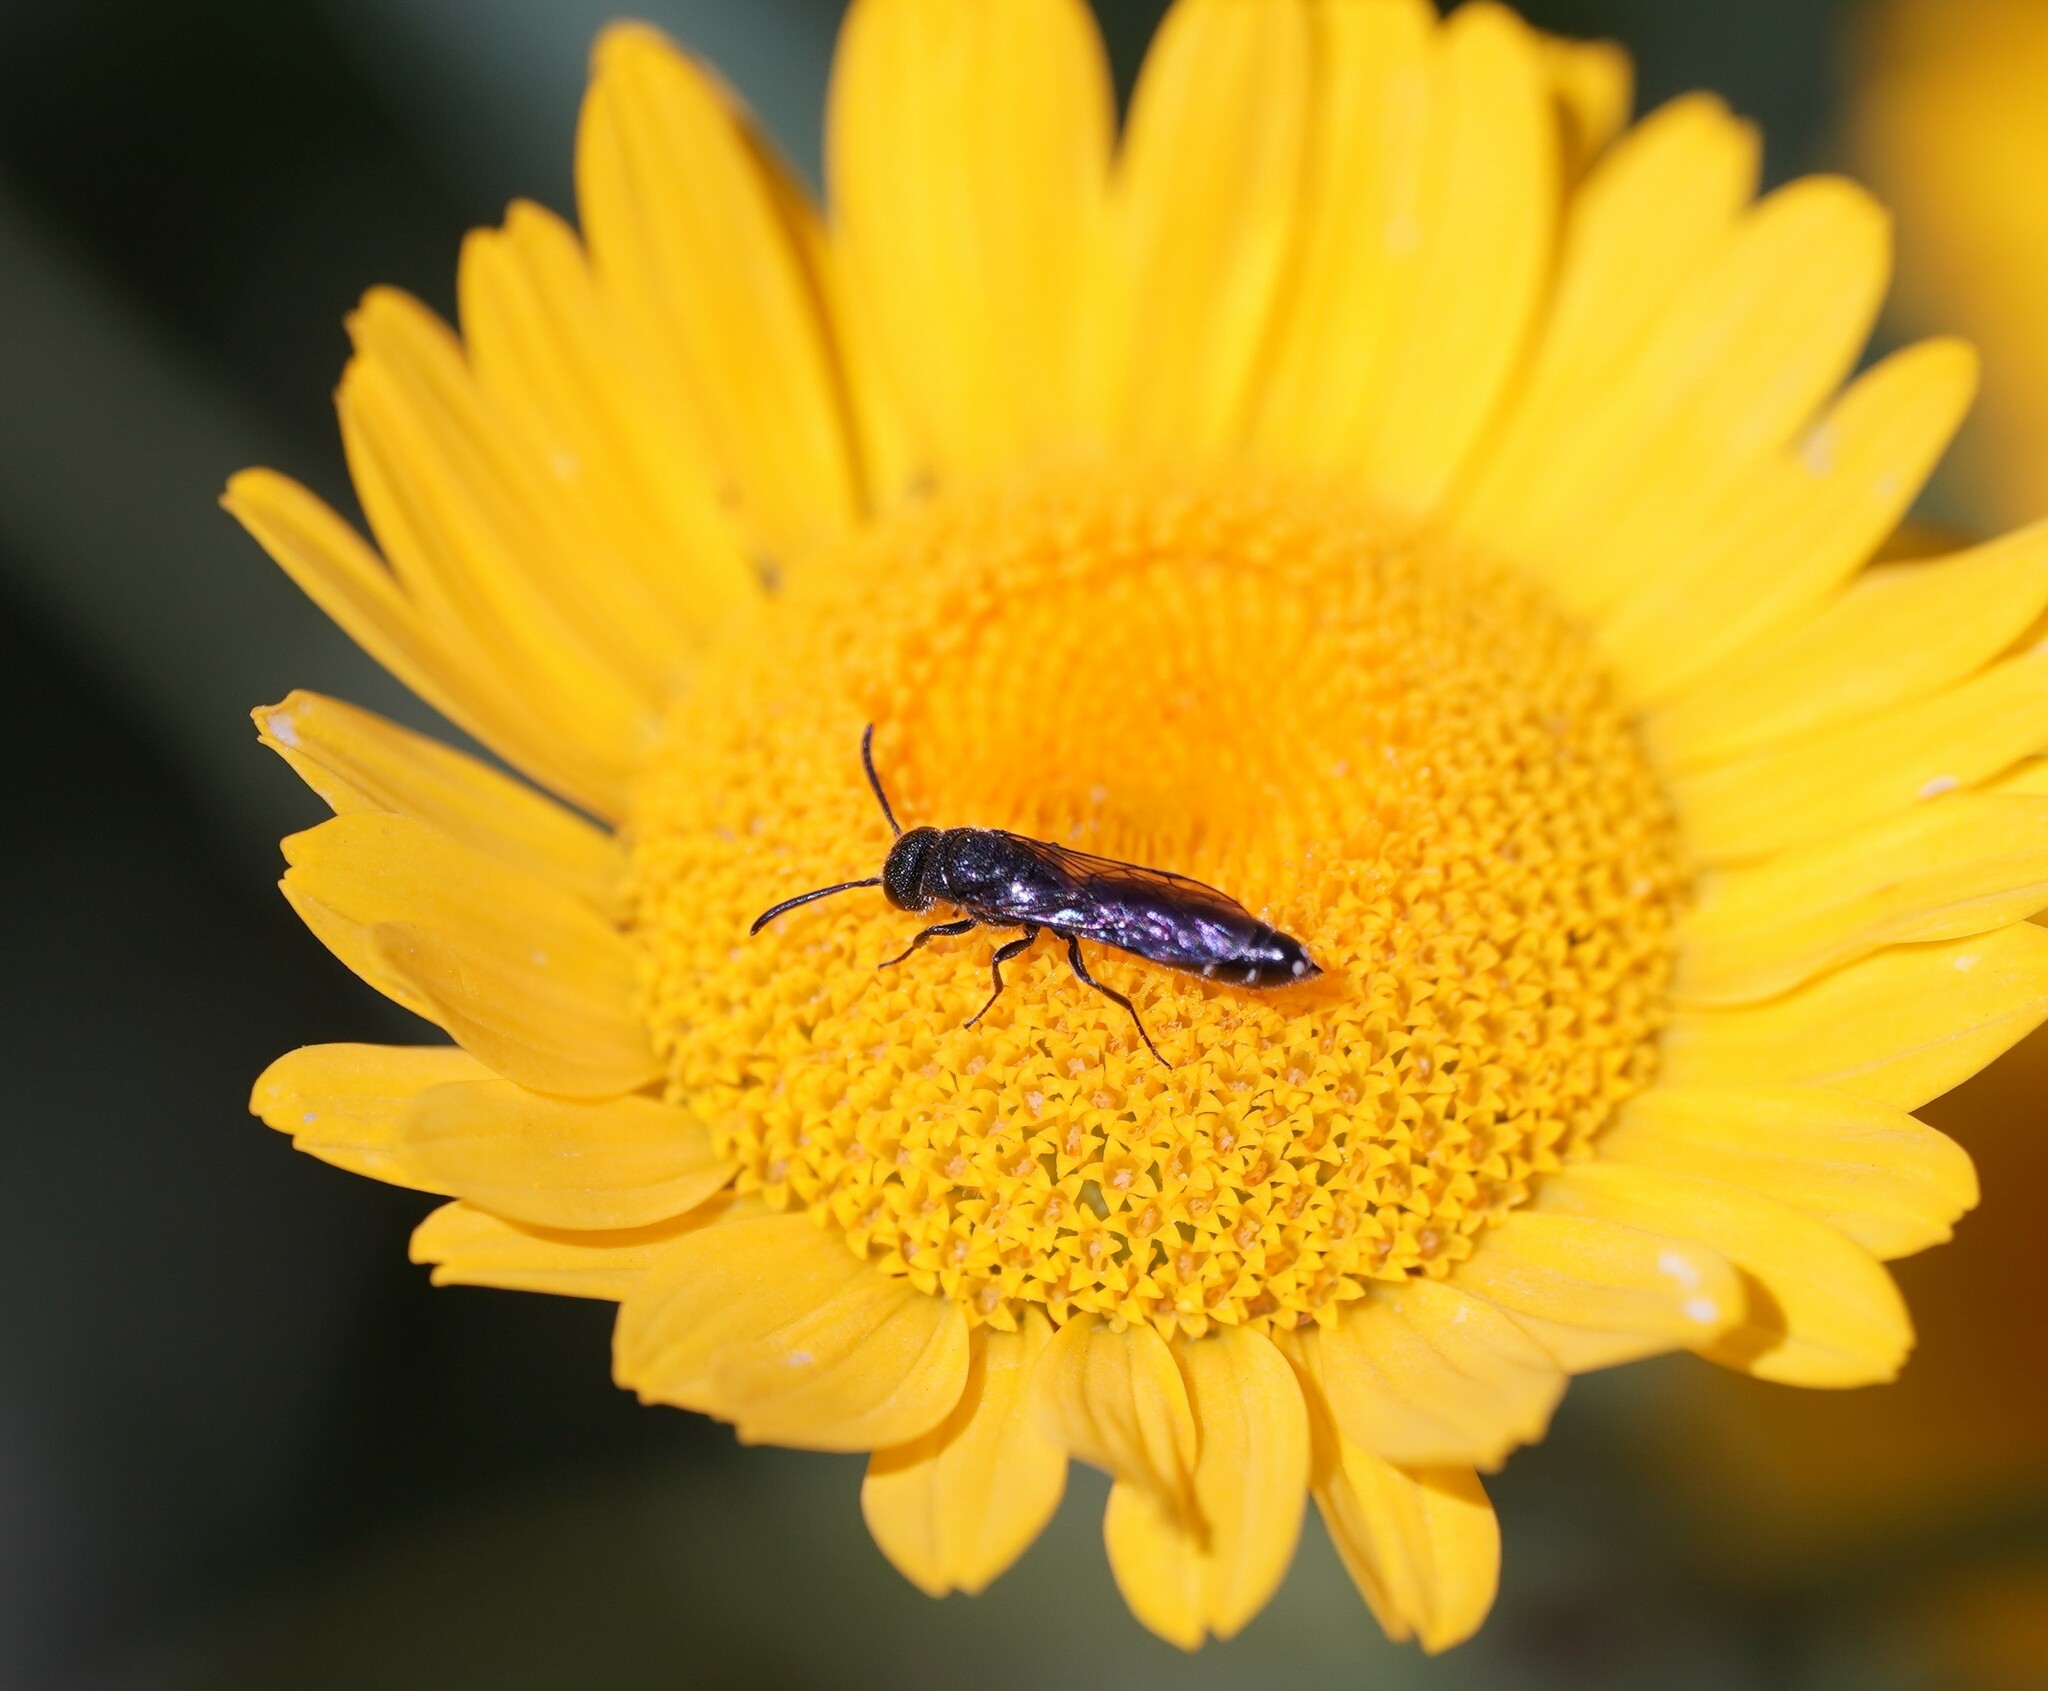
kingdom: Animalia
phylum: Arthropoda
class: Insecta
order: Hymenoptera
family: Sapygidae
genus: Sapygina
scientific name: Sapygina decemguttata
